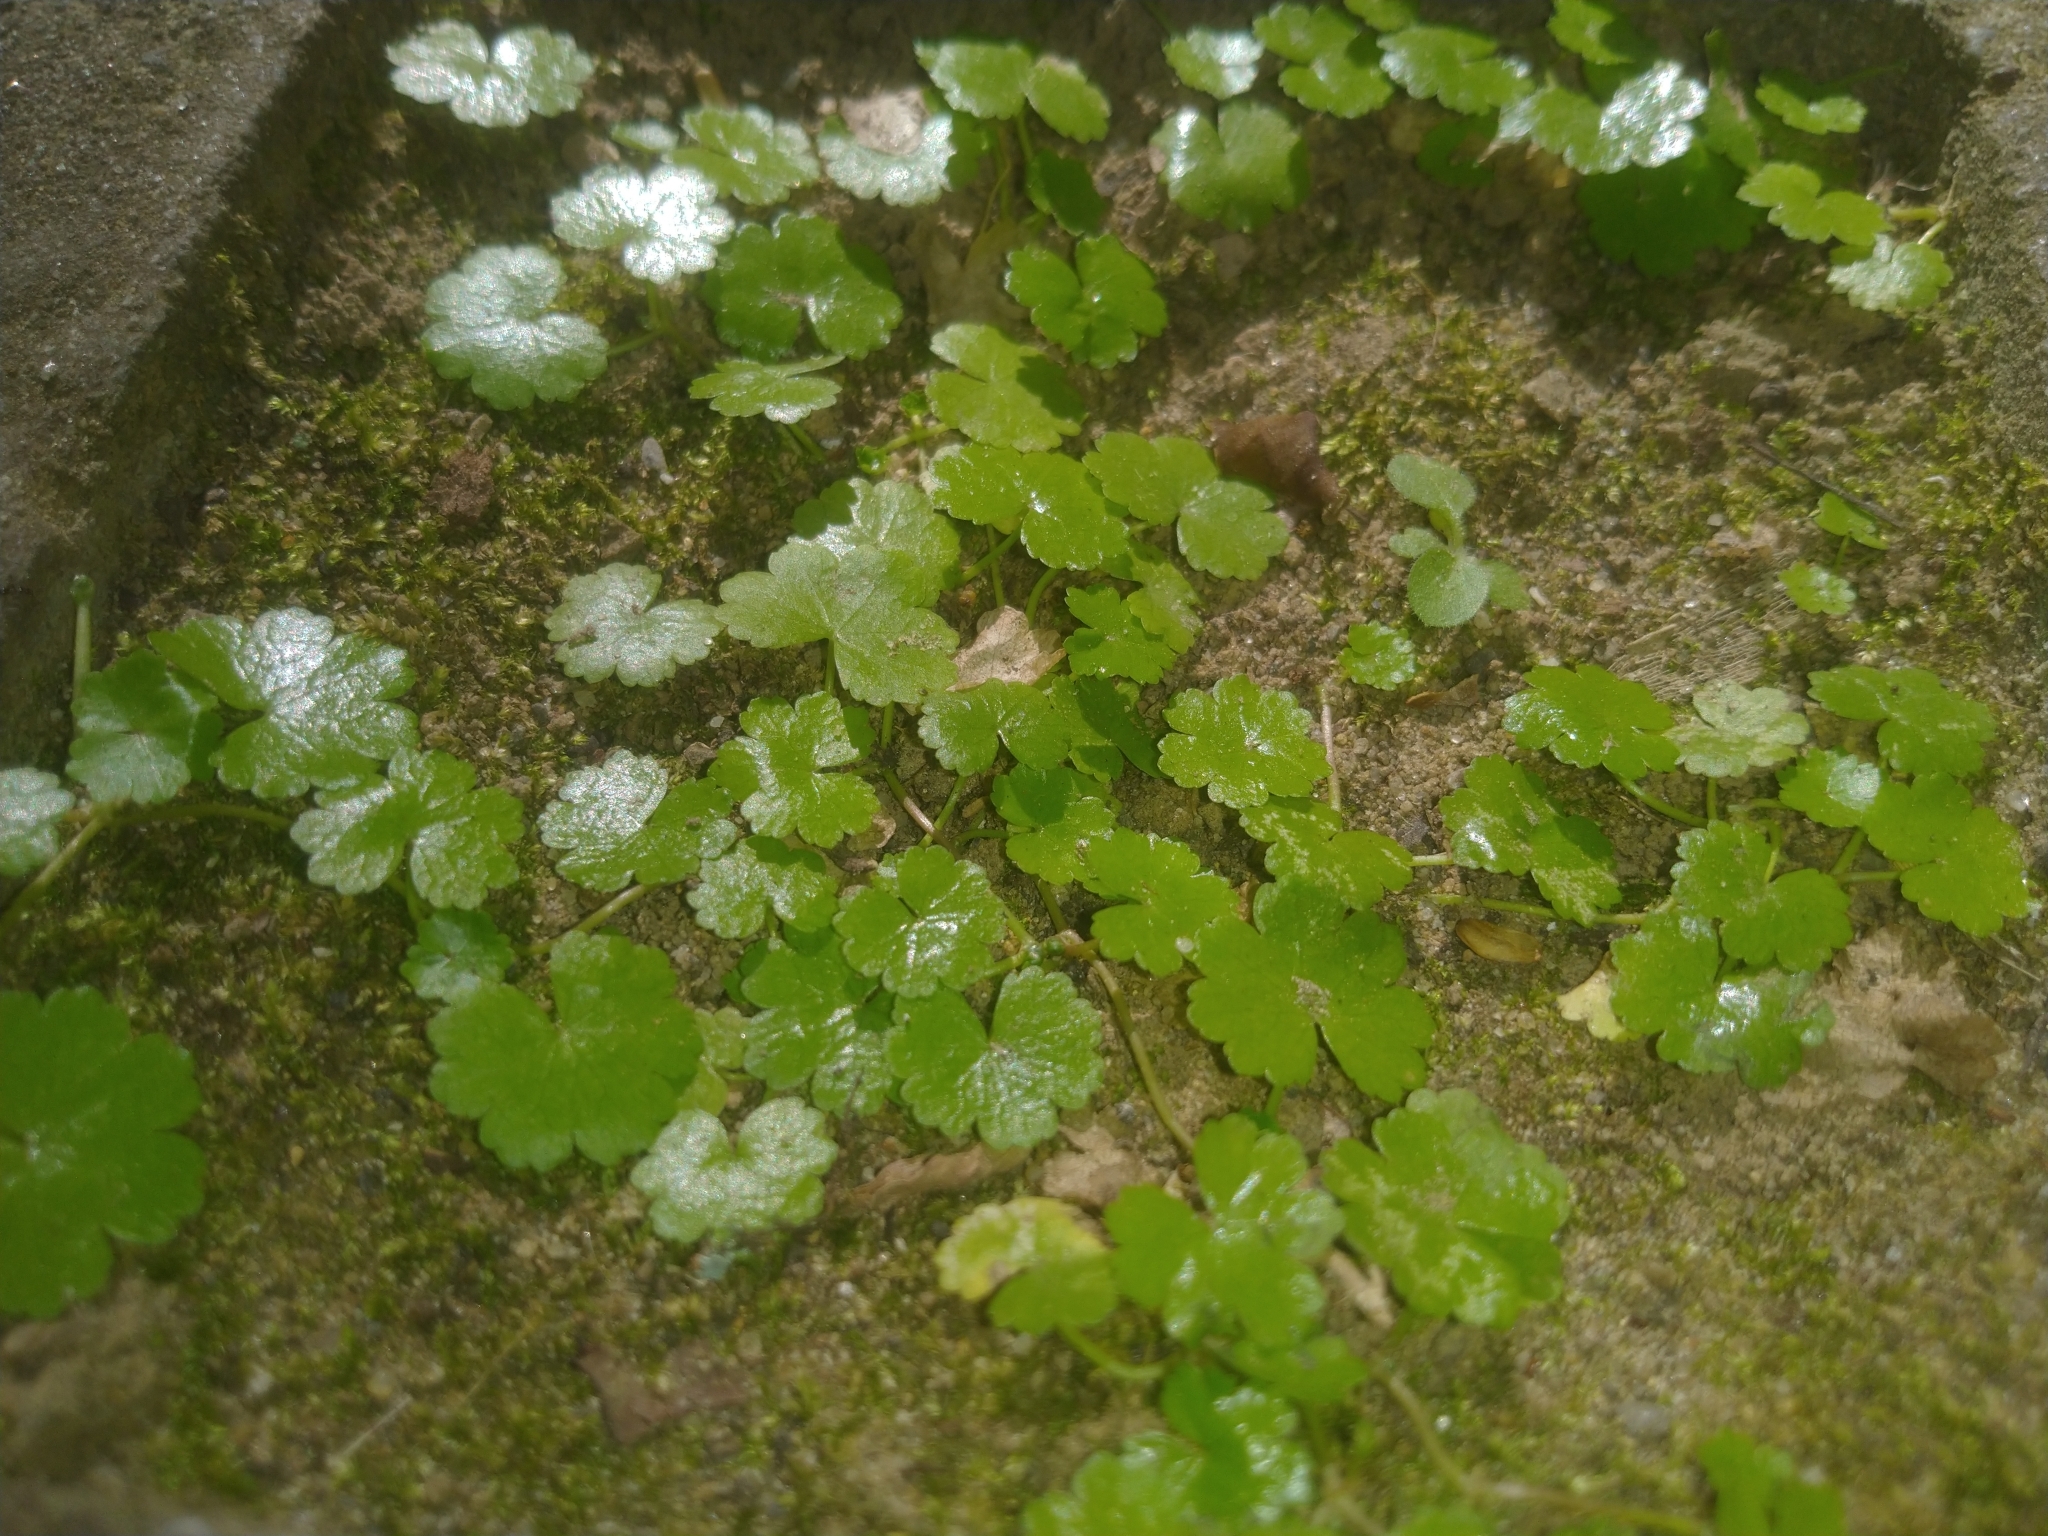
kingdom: Plantae
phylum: Tracheophyta
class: Magnoliopsida
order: Apiales
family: Araliaceae
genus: Hydrocotyle
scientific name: Hydrocotyle sibthorpioides
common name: Lawn marshpennywort
